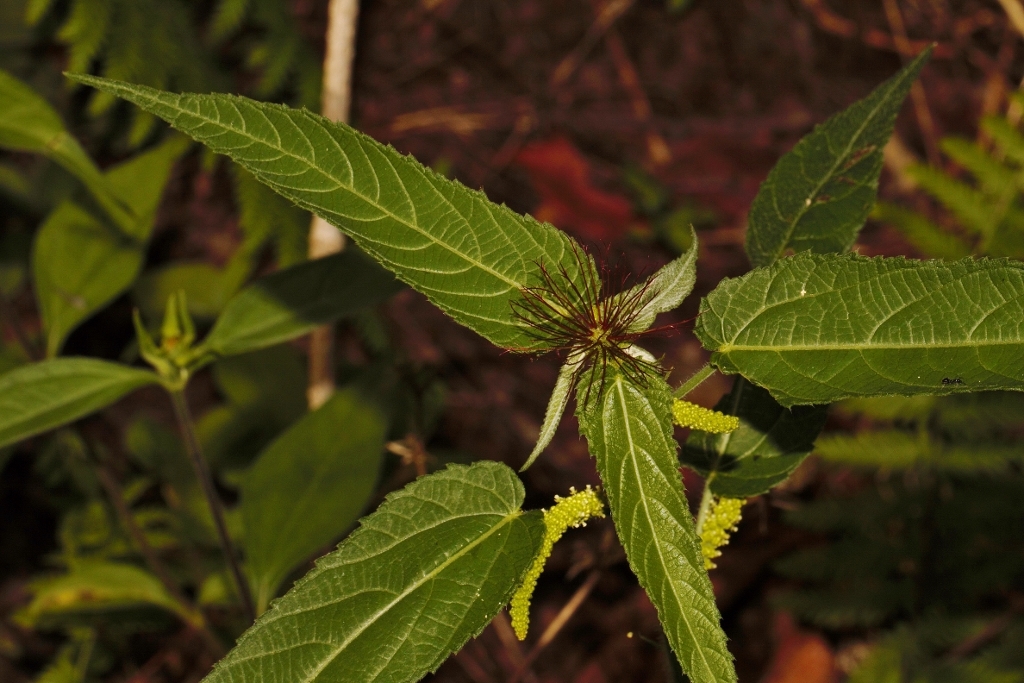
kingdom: Plantae
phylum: Tracheophyta
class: Magnoliopsida
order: Malpighiales
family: Euphorbiaceae
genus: Acalypha
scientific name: Acalypha petiolaris
